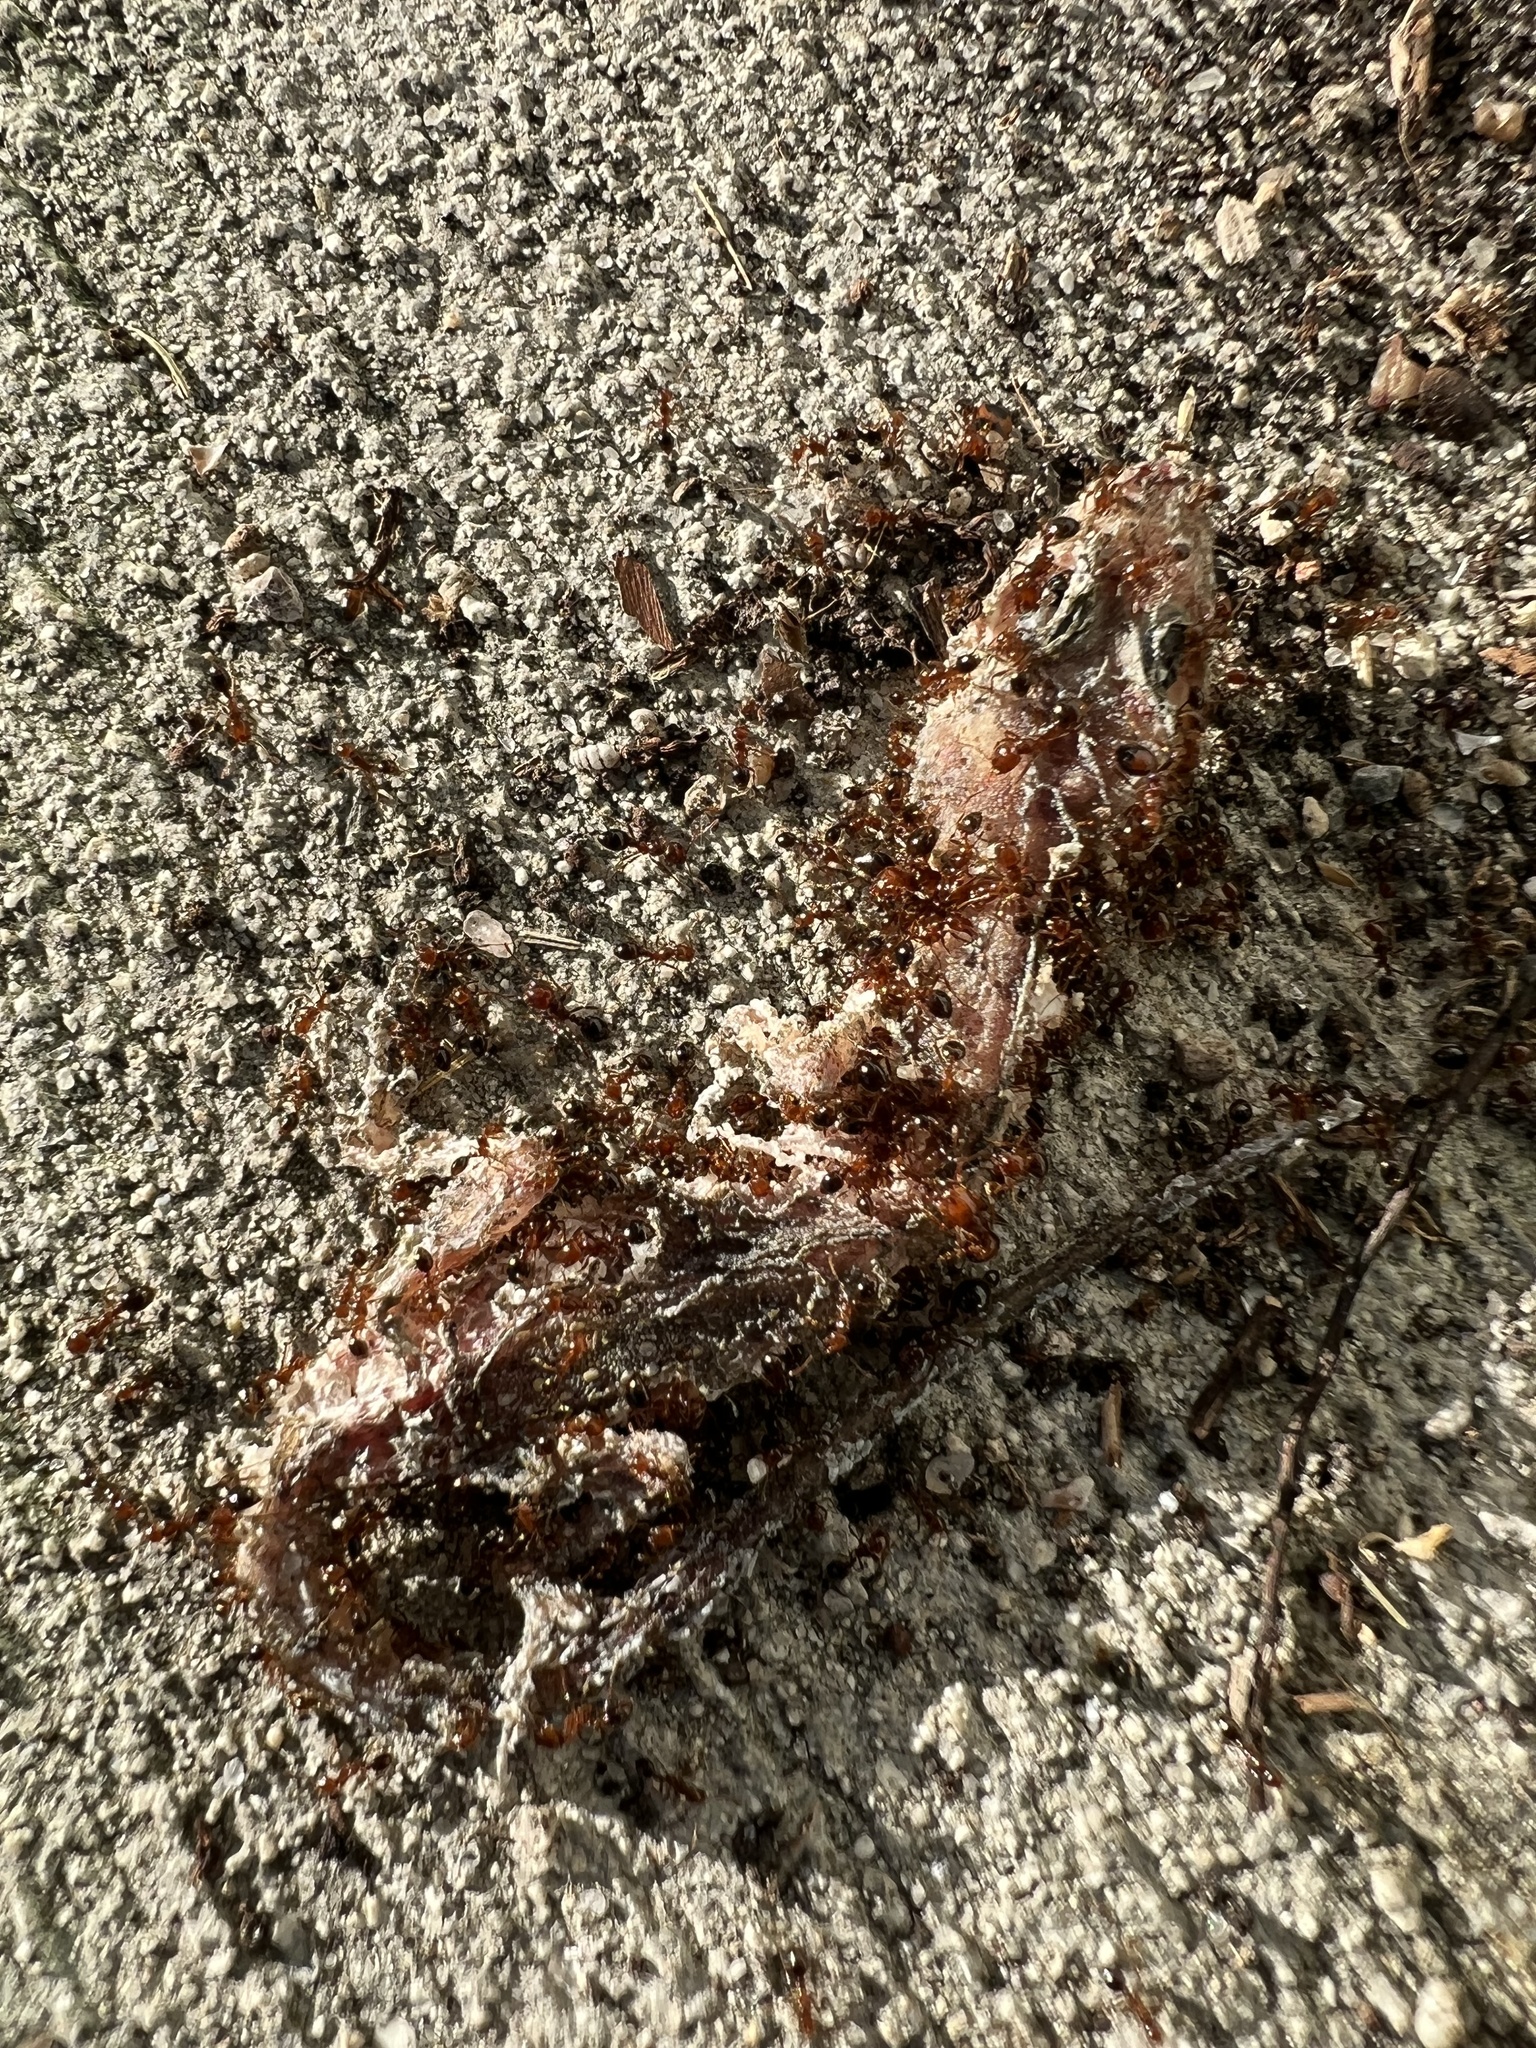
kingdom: Animalia
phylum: Arthropoda
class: Insecta
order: Hymenoptera
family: Formicidae
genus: Solenopsis
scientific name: Solenopsis invicta
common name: Red imported fire ant
